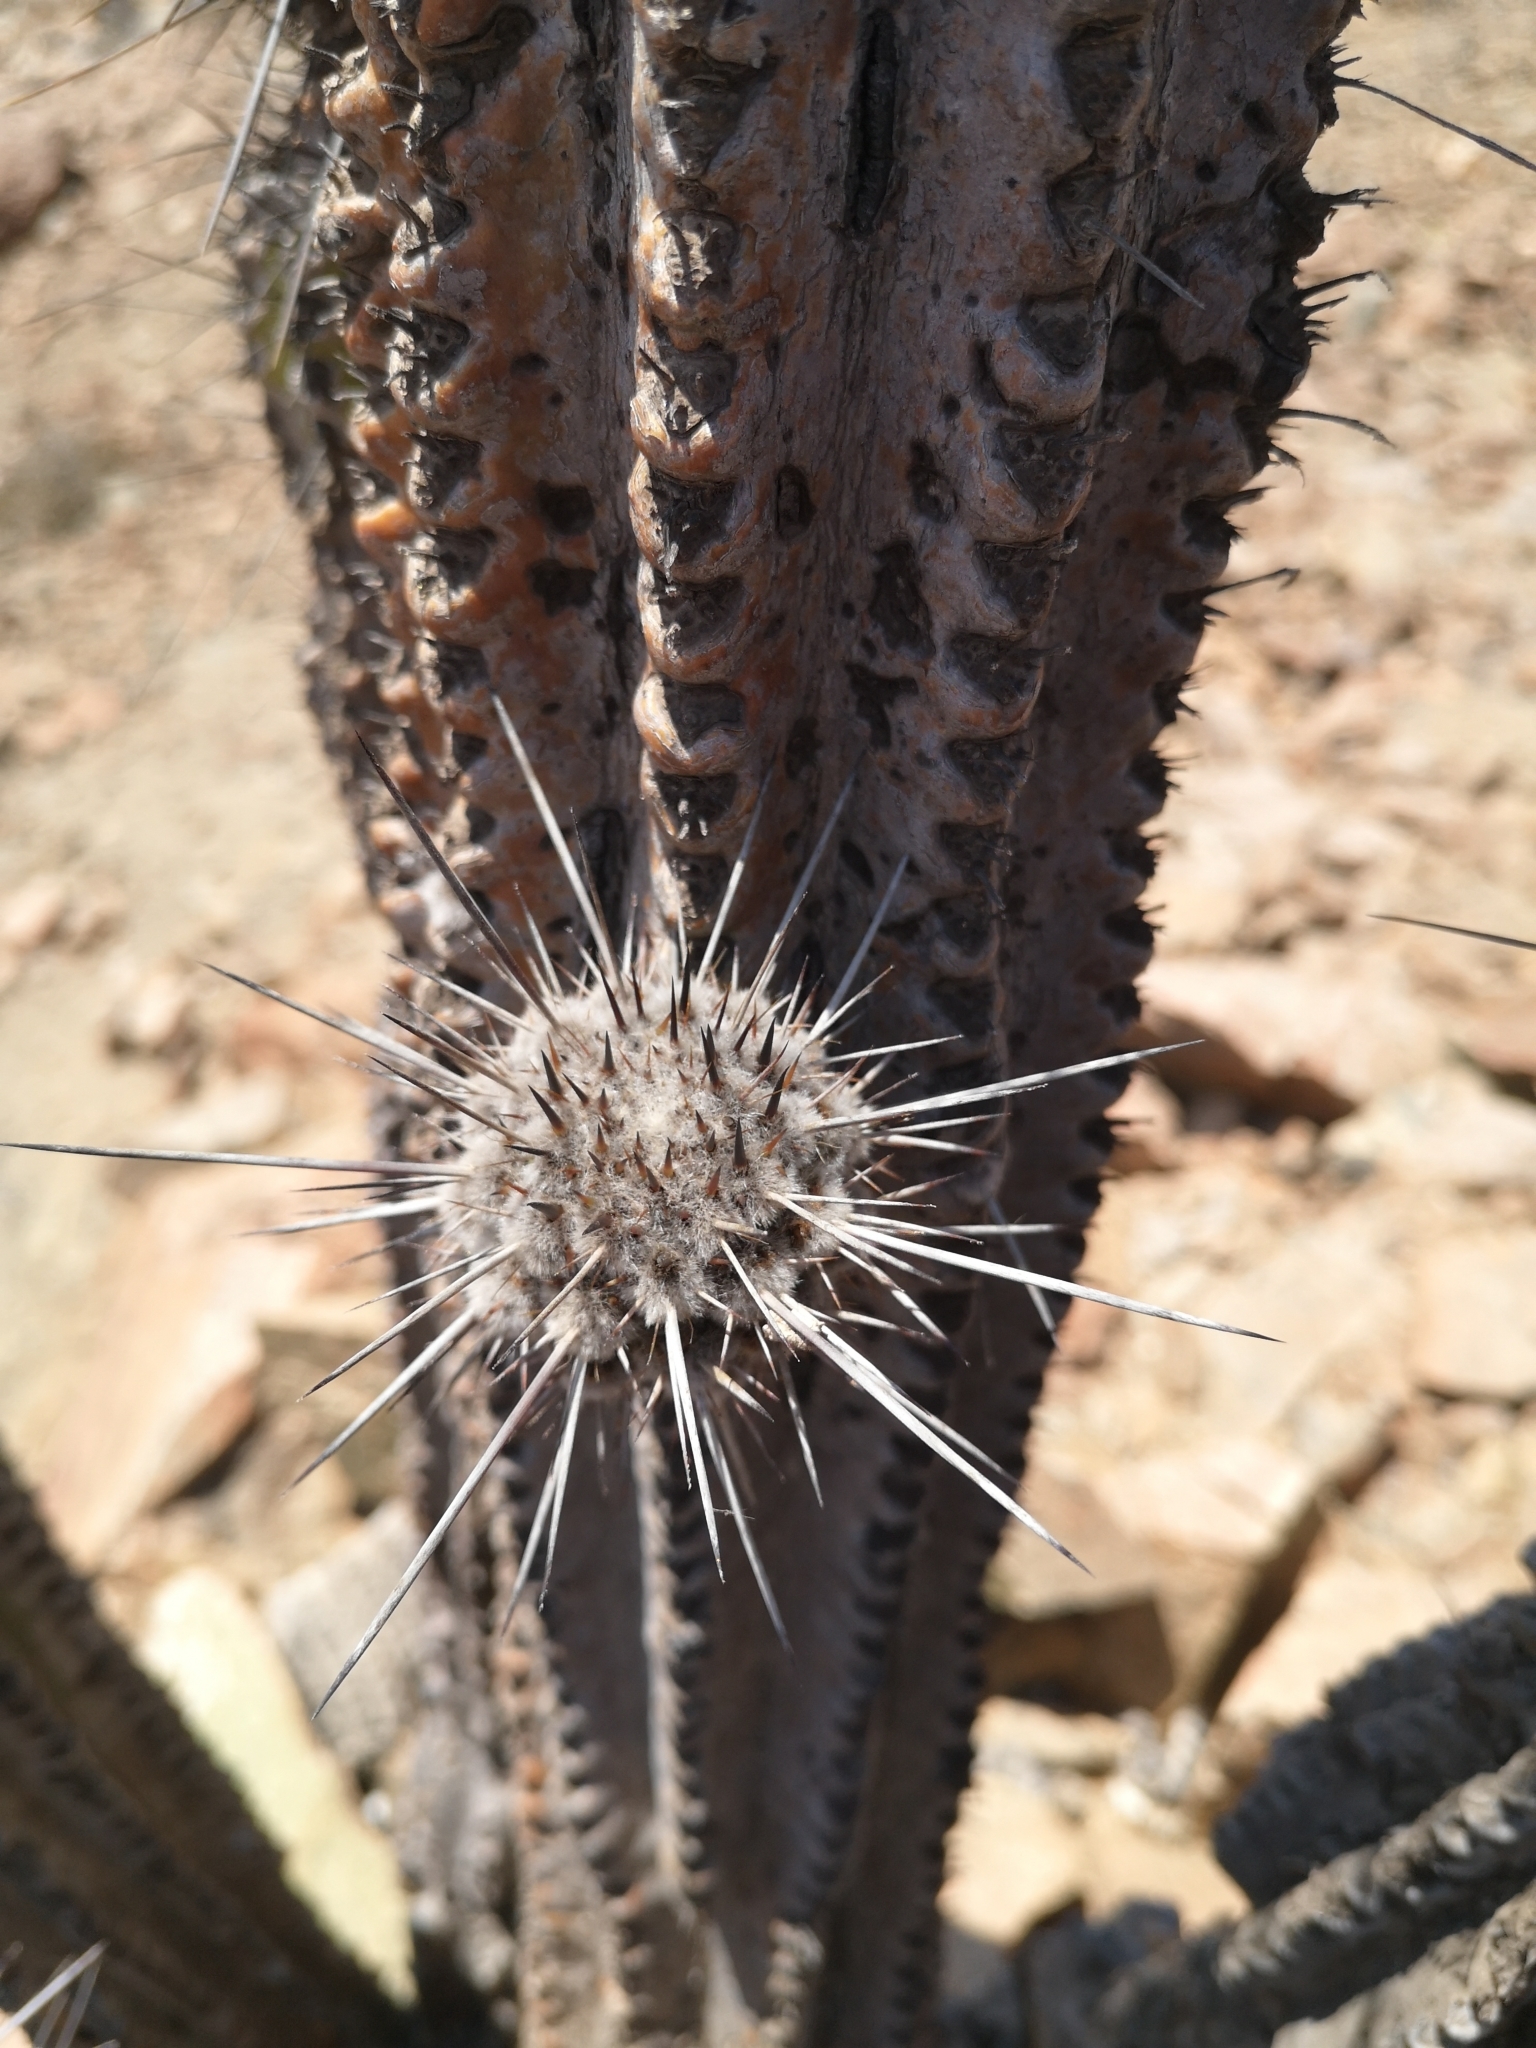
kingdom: Plantae
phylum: Tracheophyta
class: Magnoliopsida
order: Caryophyllales
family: Cactaceae
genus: Eulychnia
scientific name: Eulychnia iquiquensis
